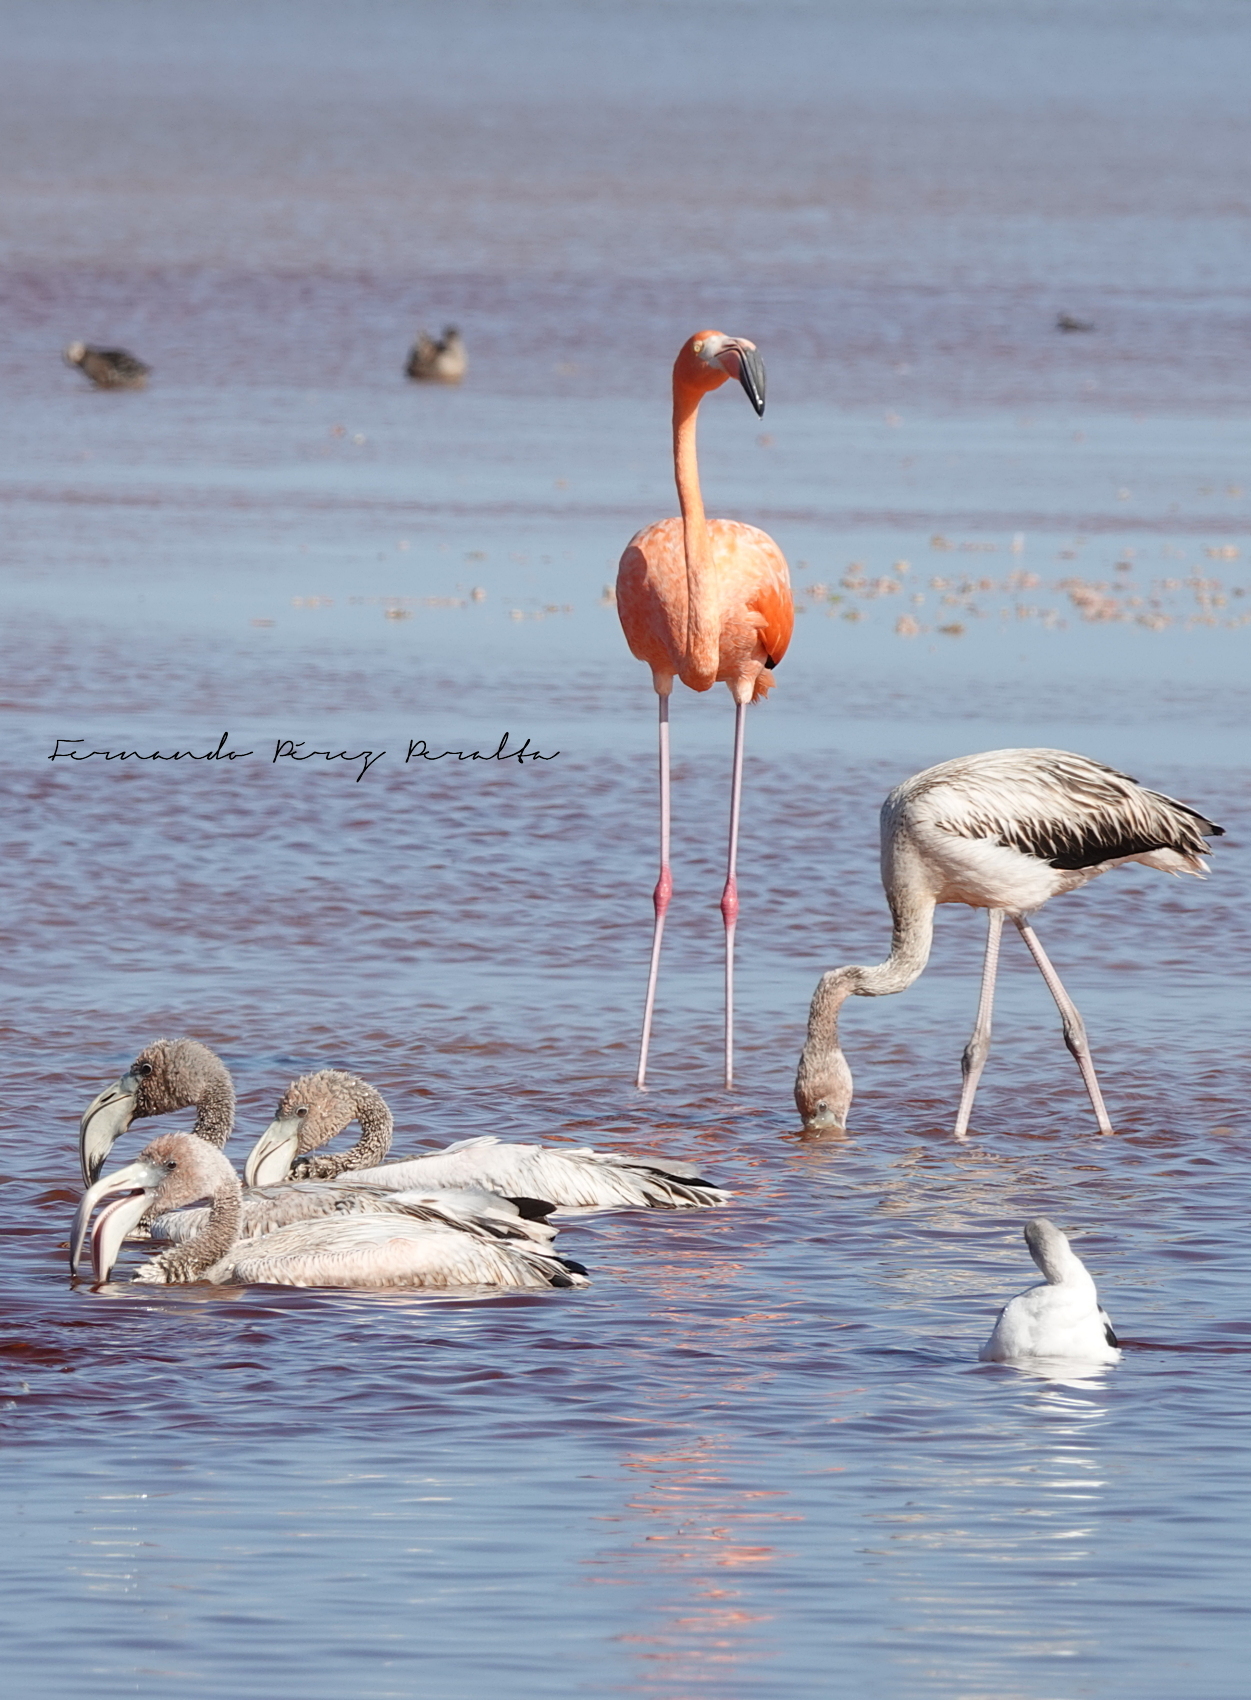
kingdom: Animalia
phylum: Chordata
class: Aves
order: Phoenicopteriformes
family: Phoenicopteridae
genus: Phoenicopterus
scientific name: Phoenicopterus ruber
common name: American flamingo
